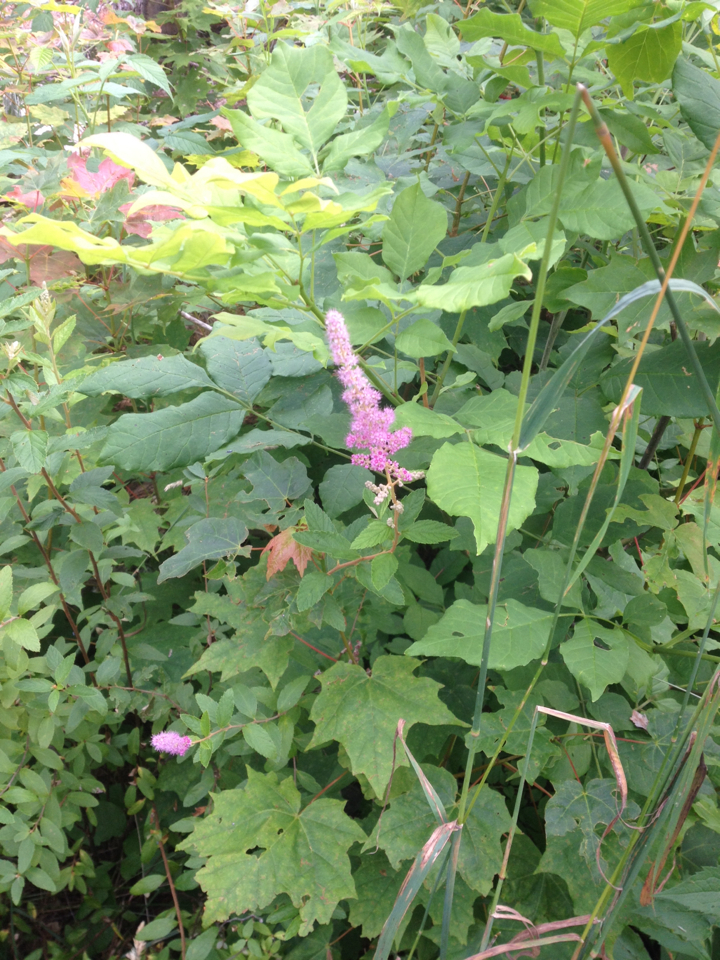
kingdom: Plantae
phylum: Tracheophyta
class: Magnoliopsida
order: Rosales
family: Rosaceae
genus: Spiraea
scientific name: Spiraea tomentosa
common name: Hardhack
